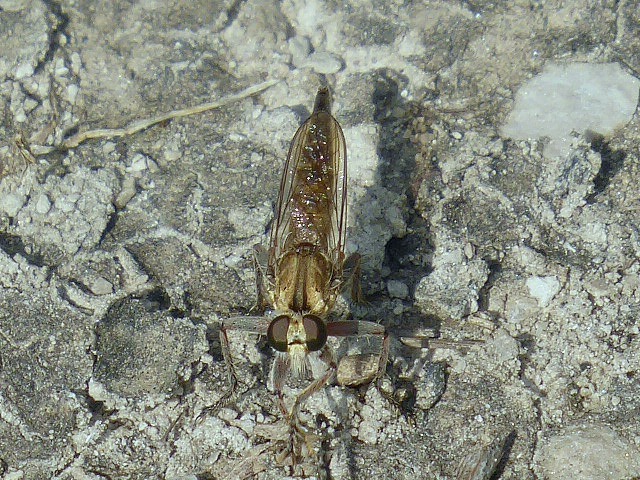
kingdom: Animalia
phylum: Arthropoda
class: Insecta
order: Diptera
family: Asilidae
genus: Proctacanthella
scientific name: Proctacanthella cacopiloga
